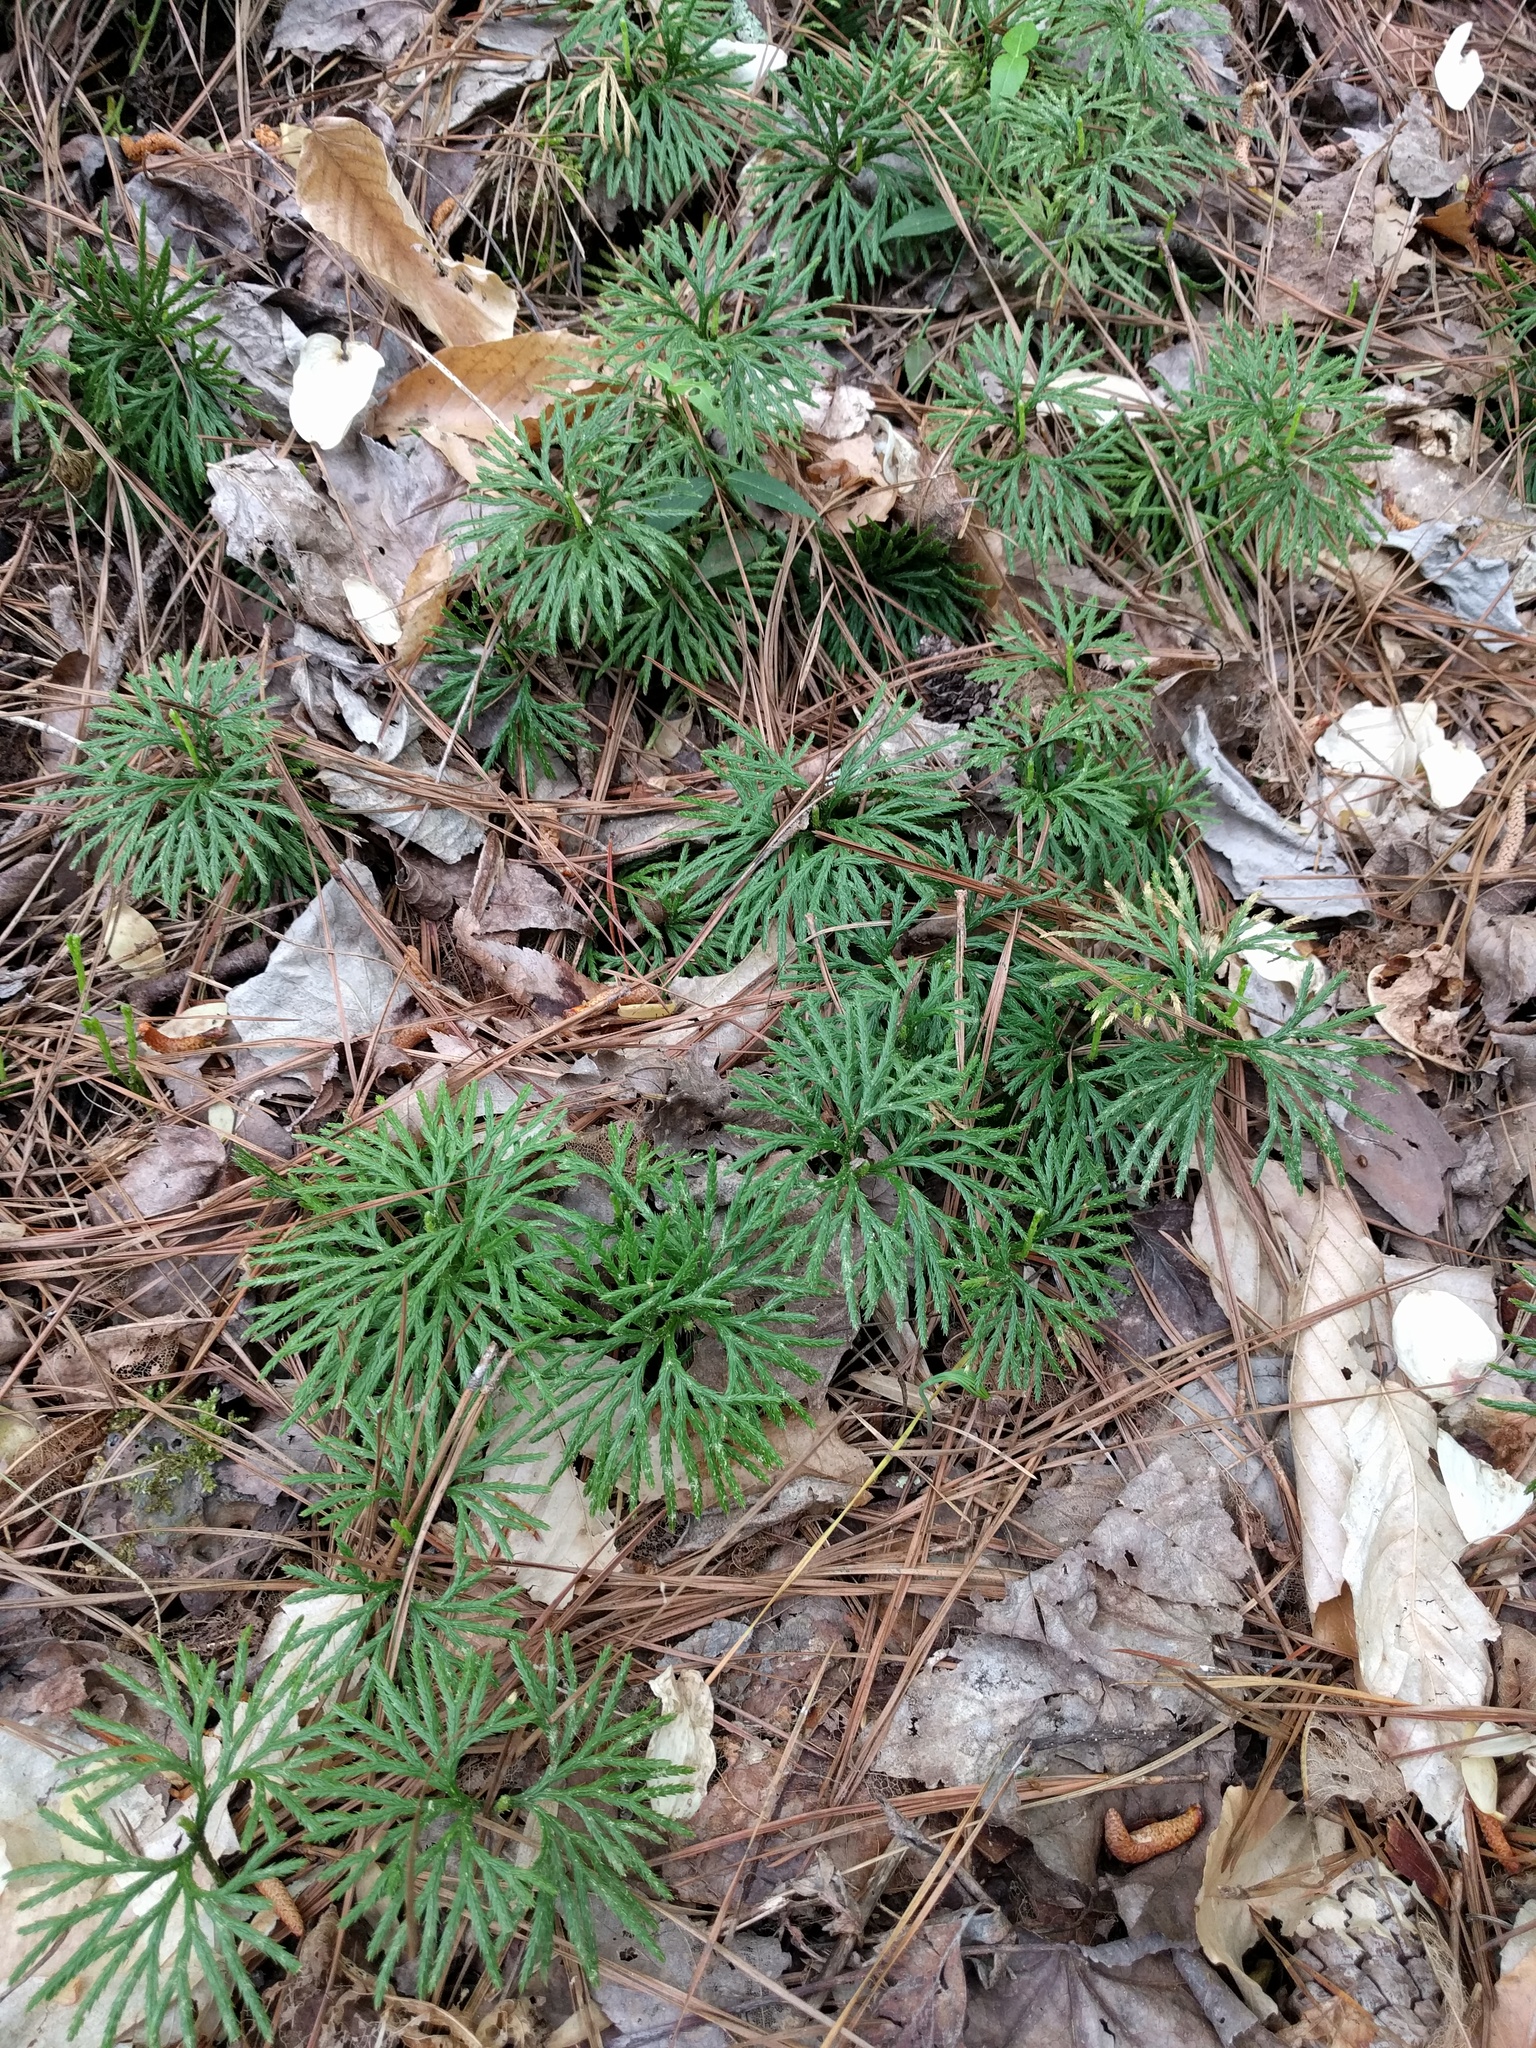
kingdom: Plantae
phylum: Tracheophyta
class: Lycopodiopsida
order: Lycopodiales
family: Lycopodiaceae
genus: Diphasiastrum
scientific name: Diphasiastrum digitatum
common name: Southern running-pine
